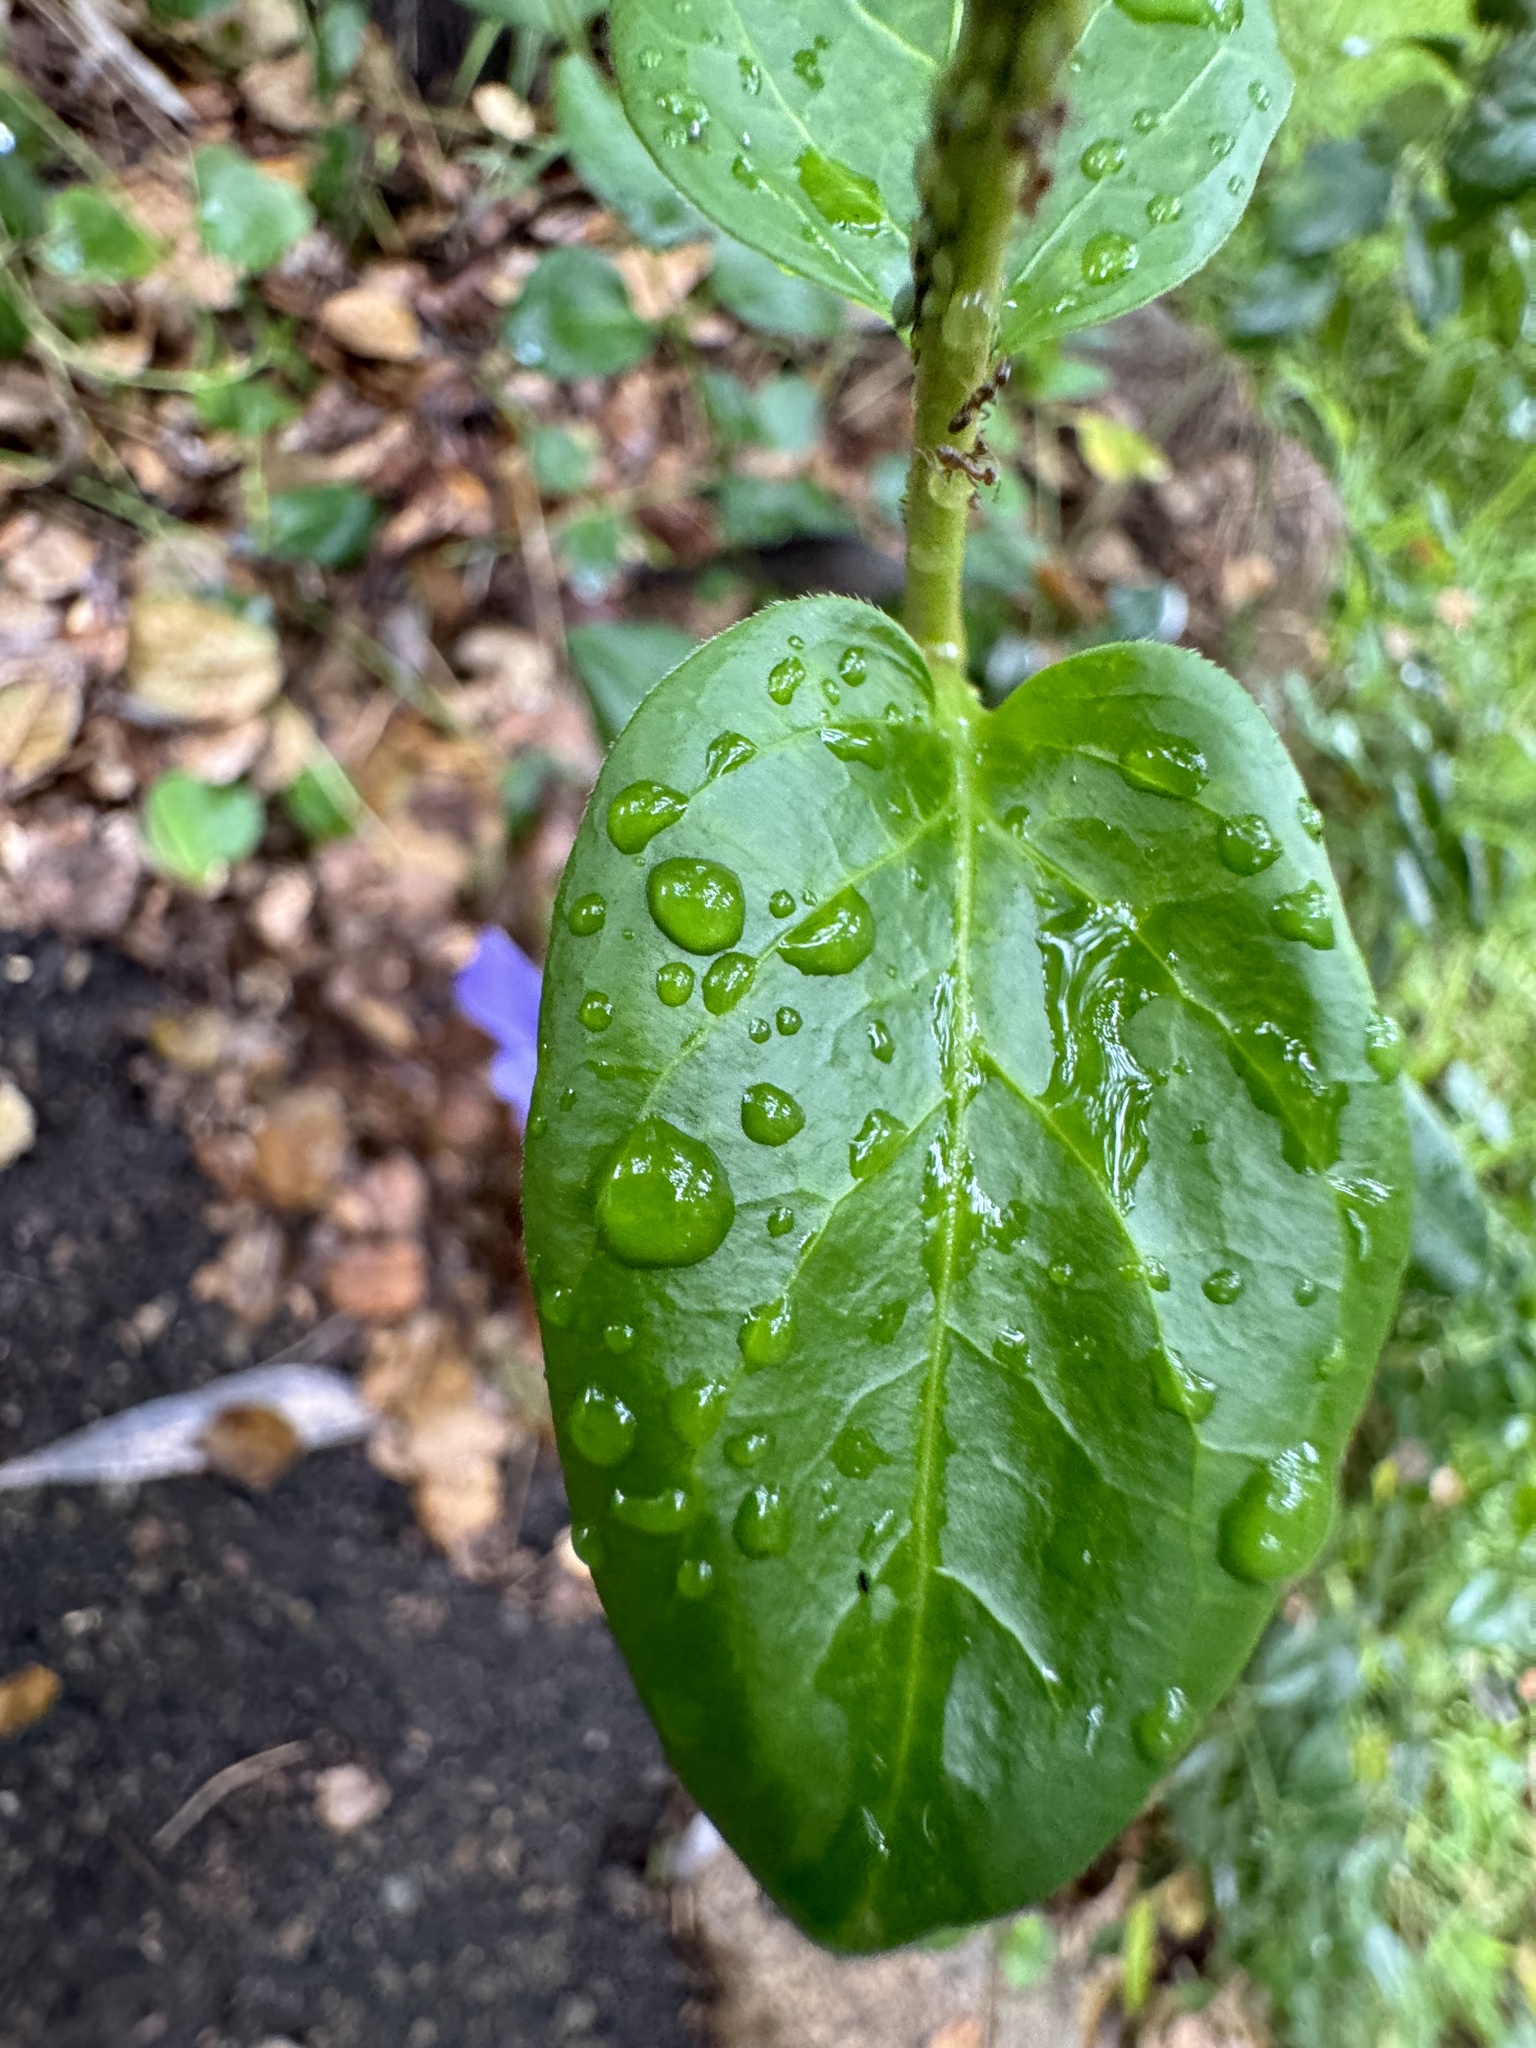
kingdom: Plantae
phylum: Tracheophyta
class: Magnoliopsida
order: Gentianales
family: Apocynaceae
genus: Vinca
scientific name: Vinca major
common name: Greater periwinkle
